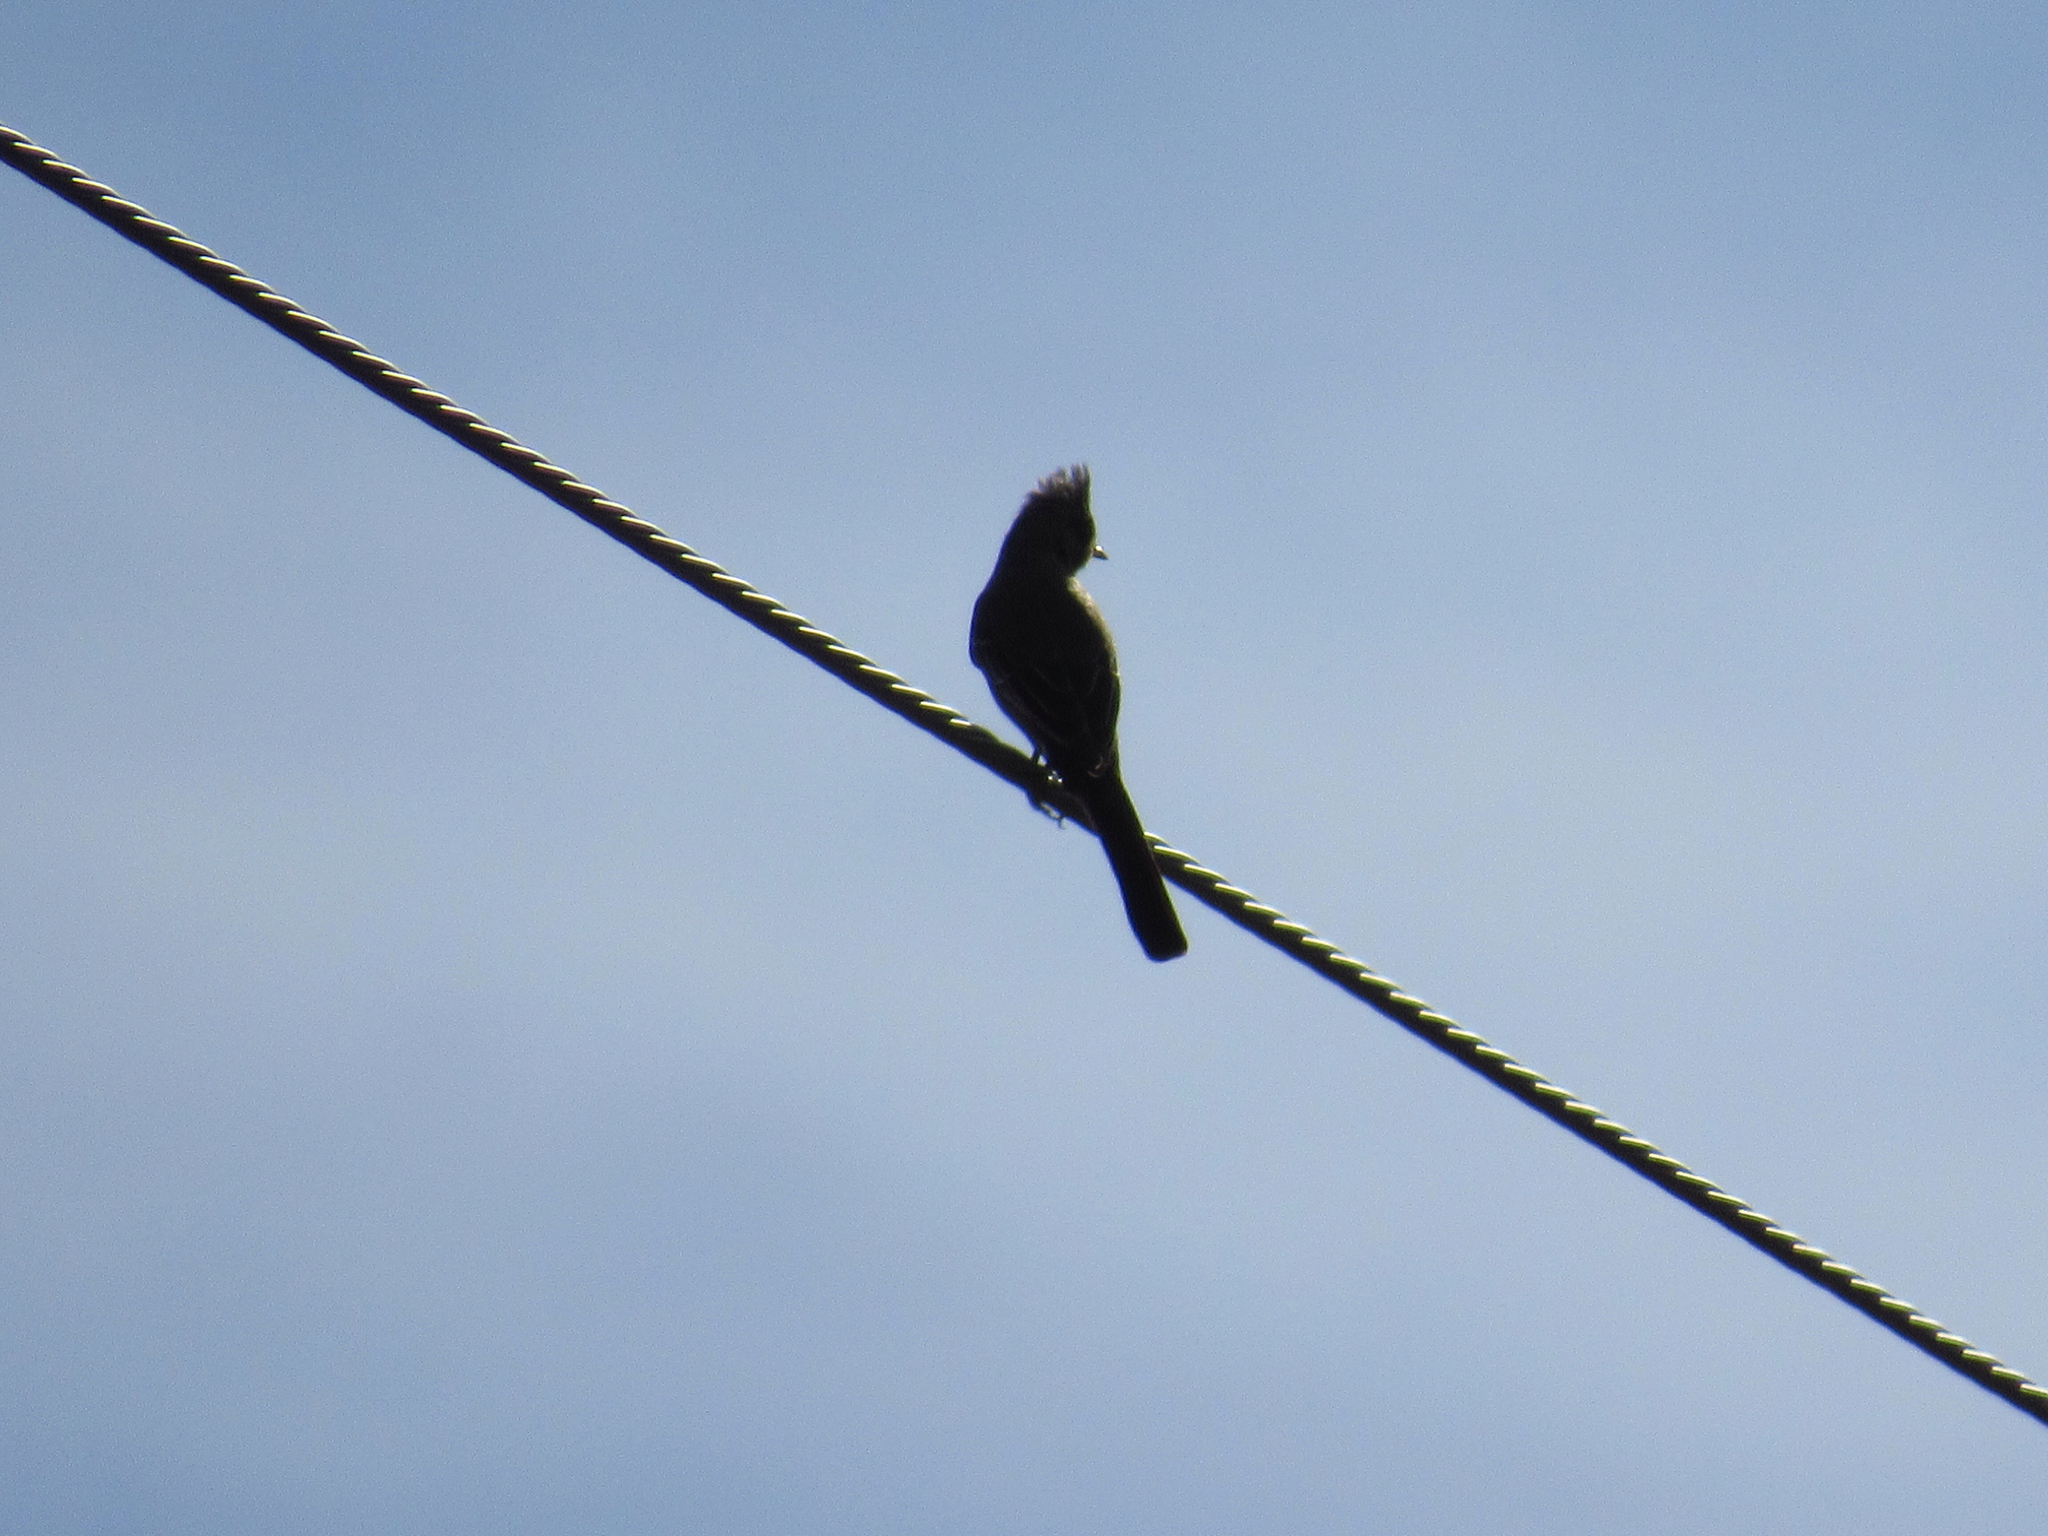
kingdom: Animalia
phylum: Chordata
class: Aves
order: Passeriformes
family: Ptilogonatidae
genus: Phainopepla
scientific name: Phainopepla nitens
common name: Phainopepla
